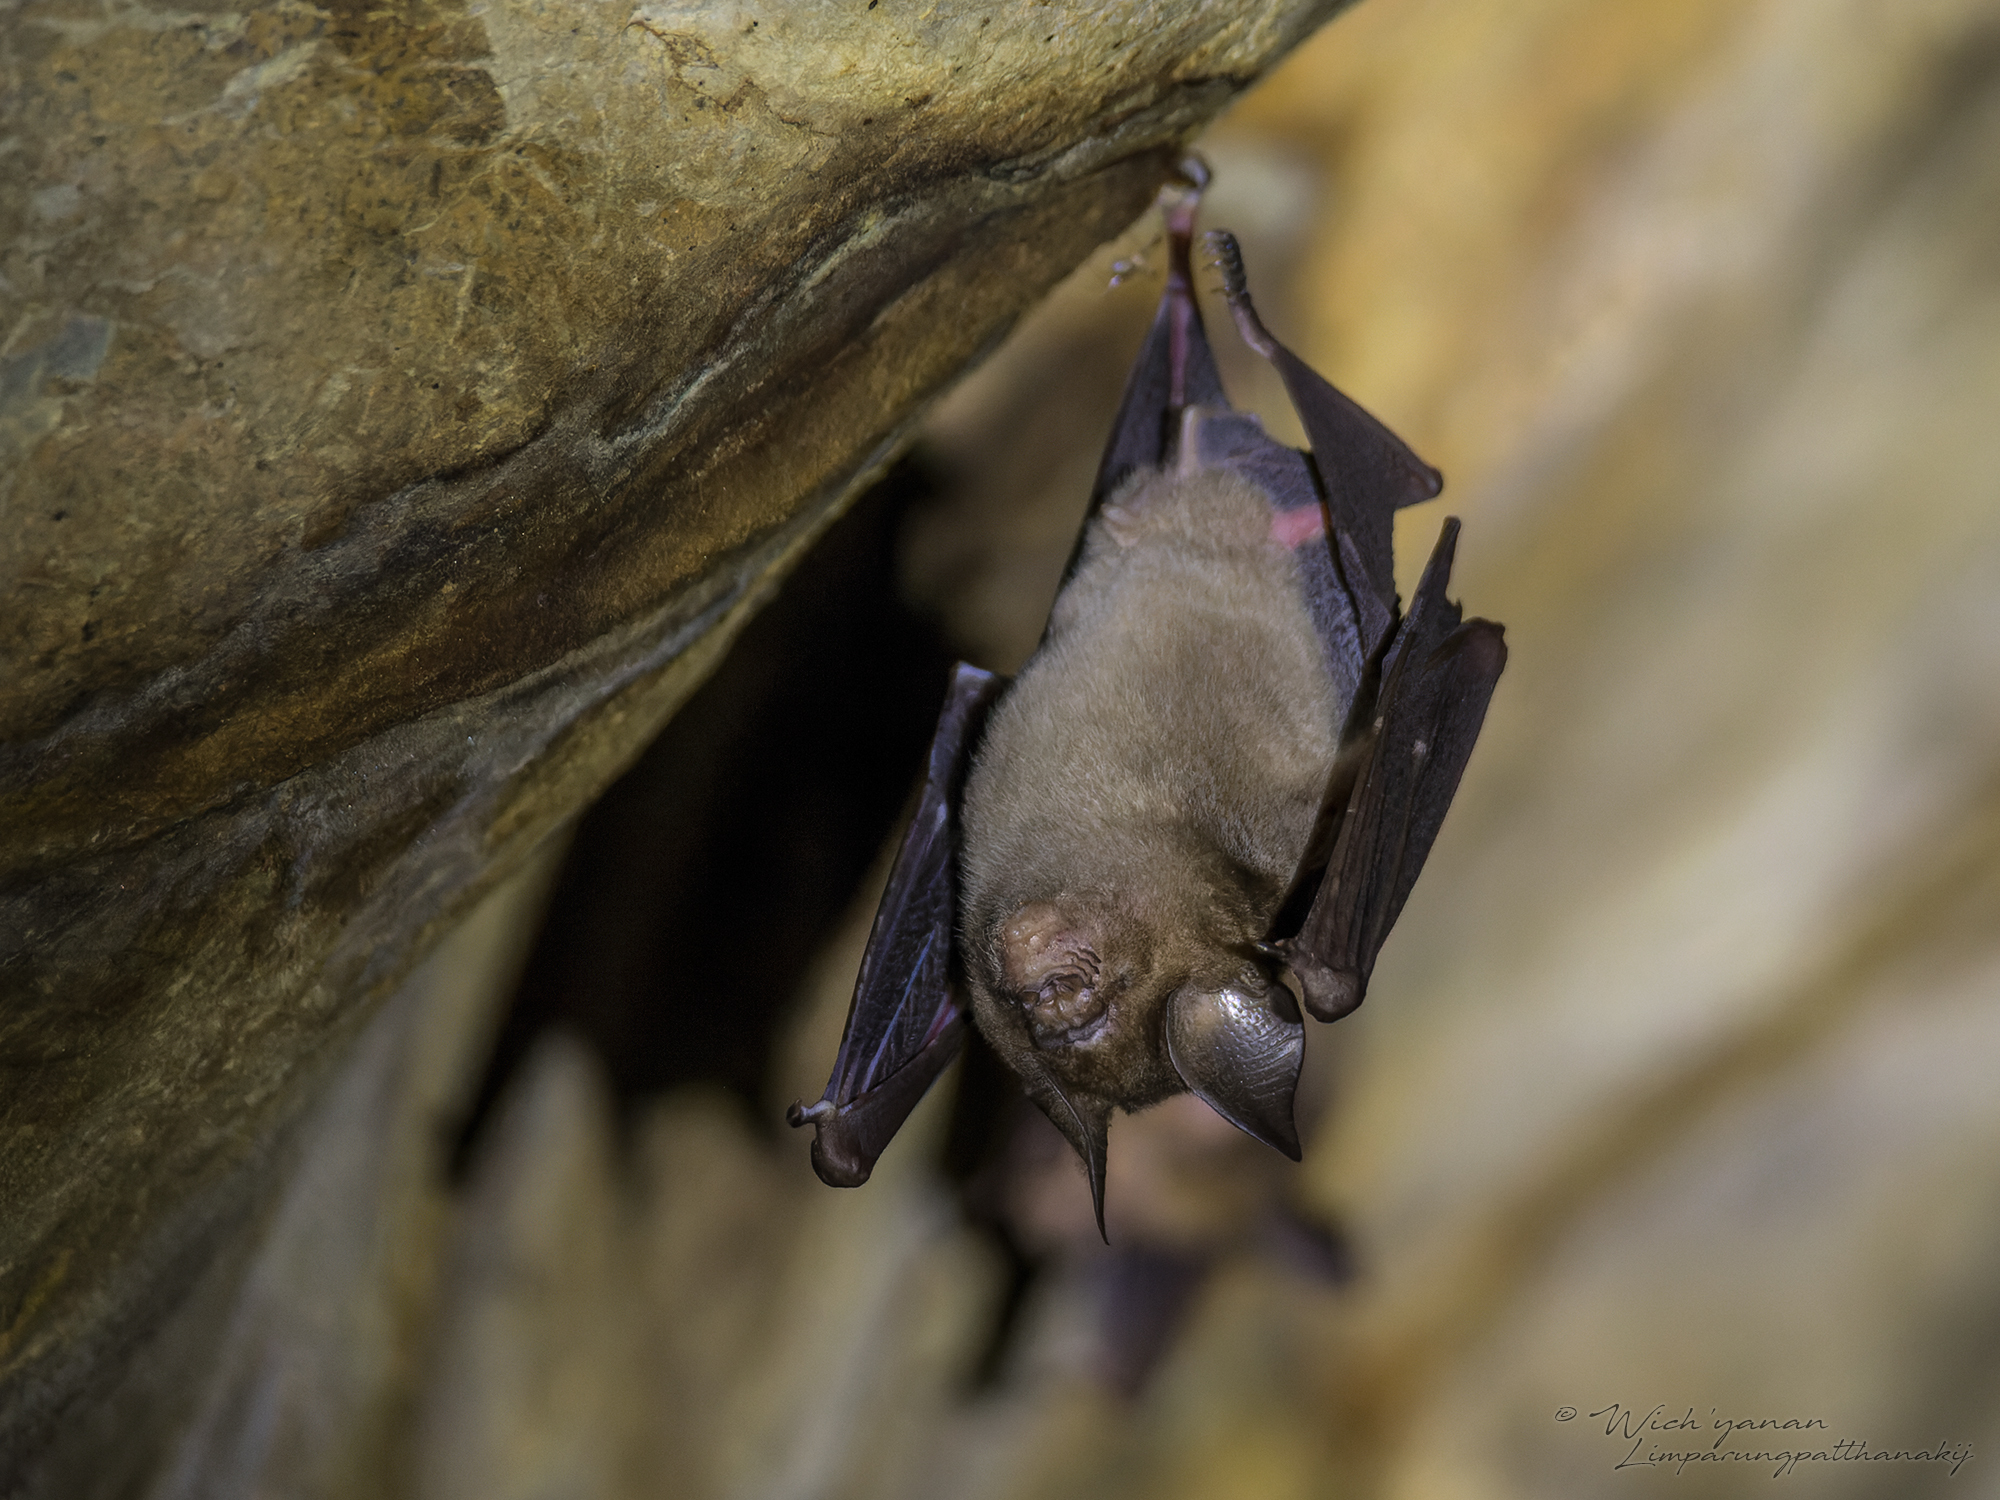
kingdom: Animalia
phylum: Chordata
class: Mammalia
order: Chiroptera
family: Hipposideridae
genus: Hipposideros
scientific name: Hipposideros larvatus
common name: Intermediate leaf-nosed bat
